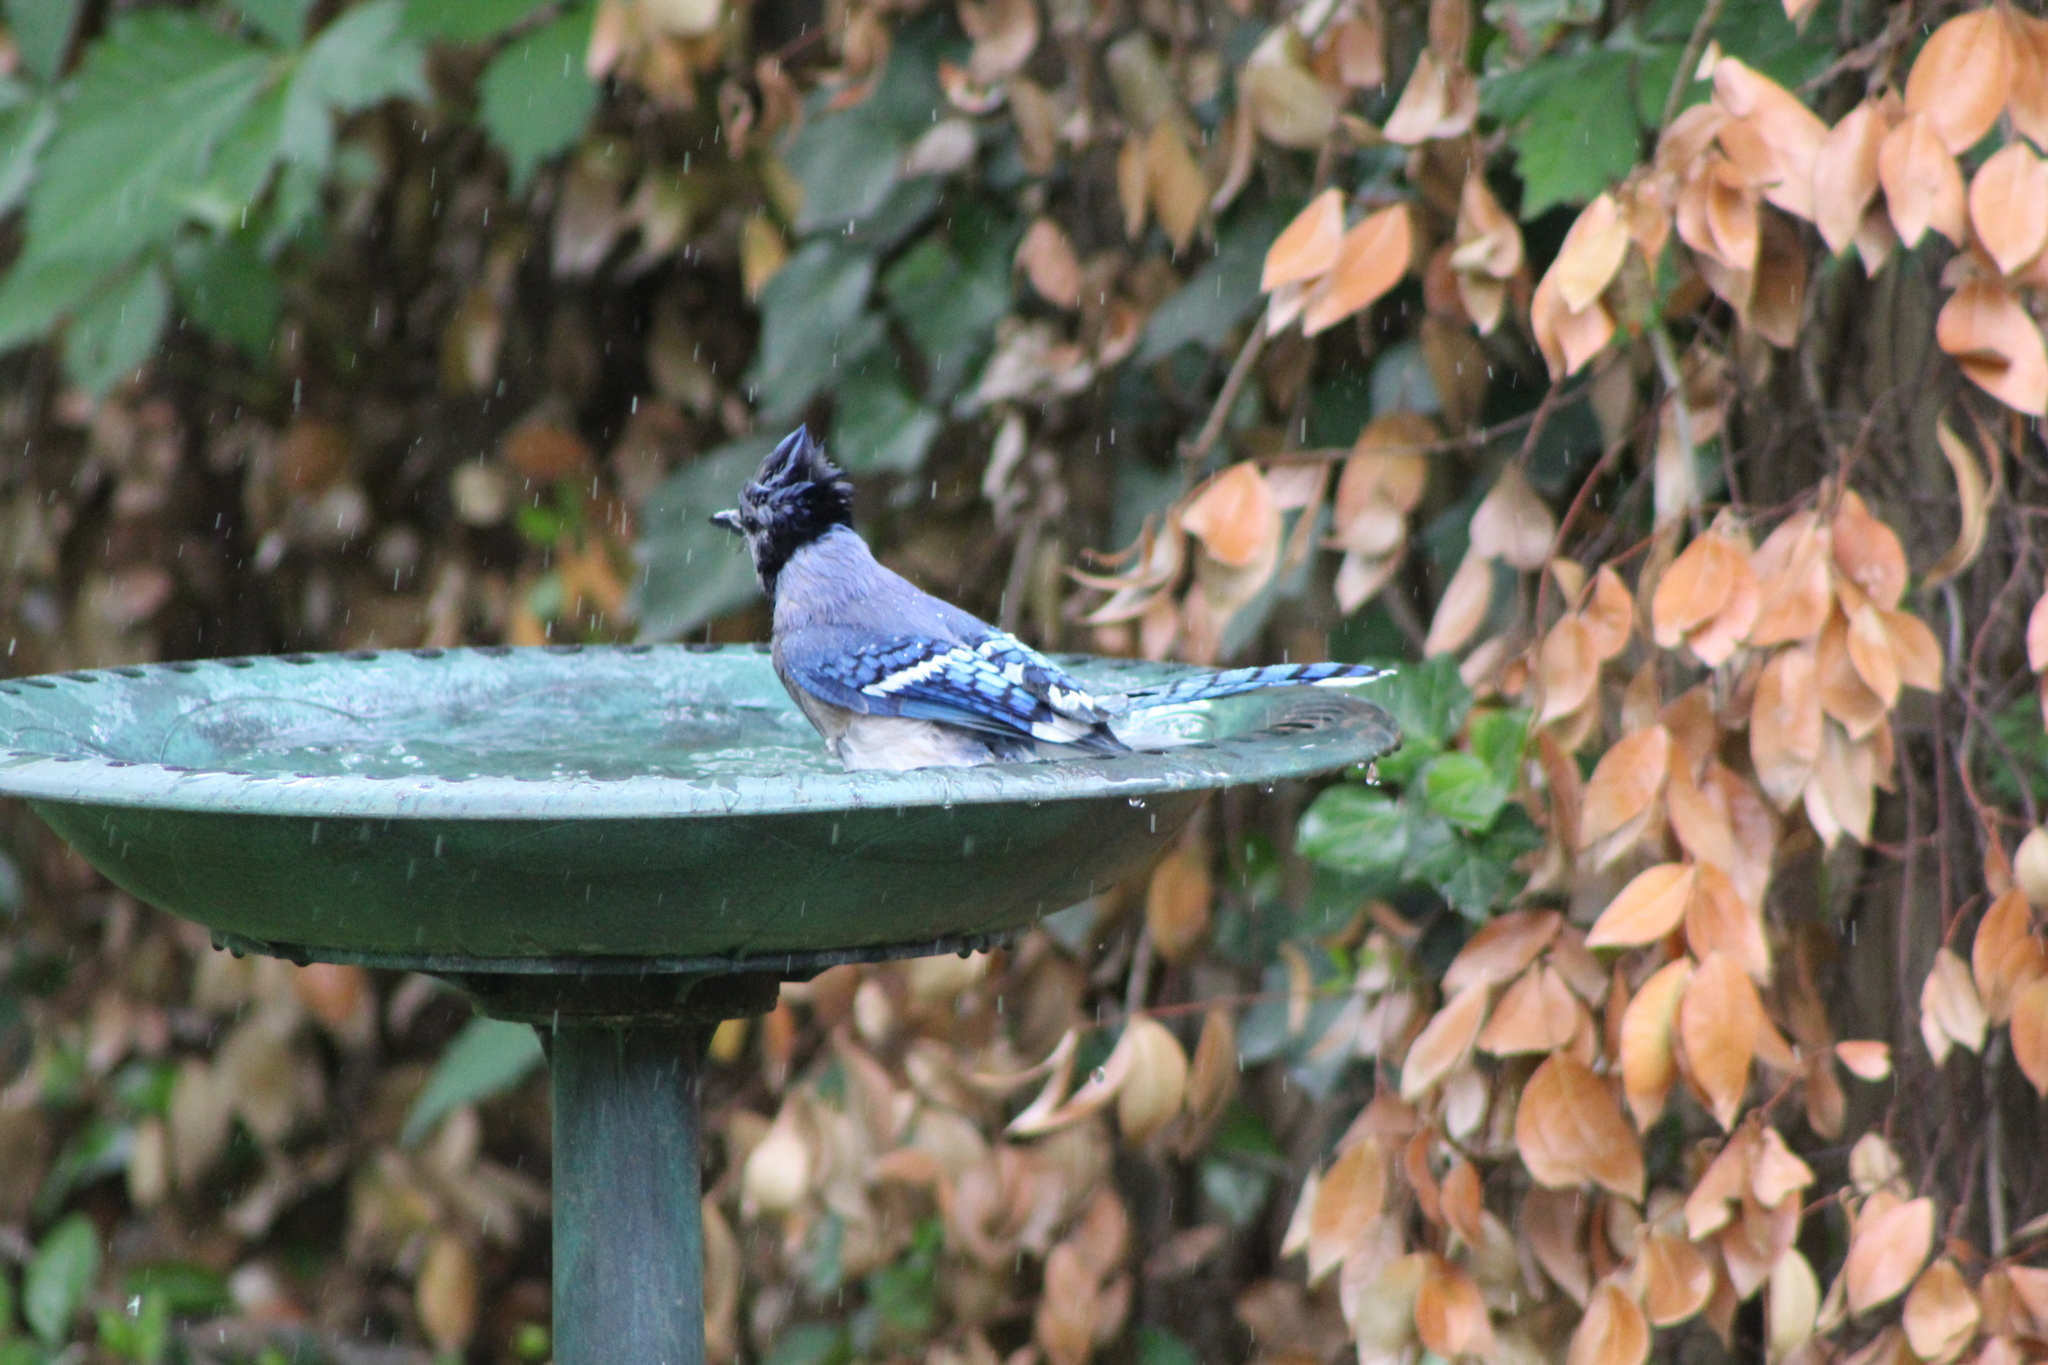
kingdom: Animalia
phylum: Chordata
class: Aves
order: Passeriformes
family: Corvidae
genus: Cyanocitta
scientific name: Cyanocitta cristata
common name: Blue jay
